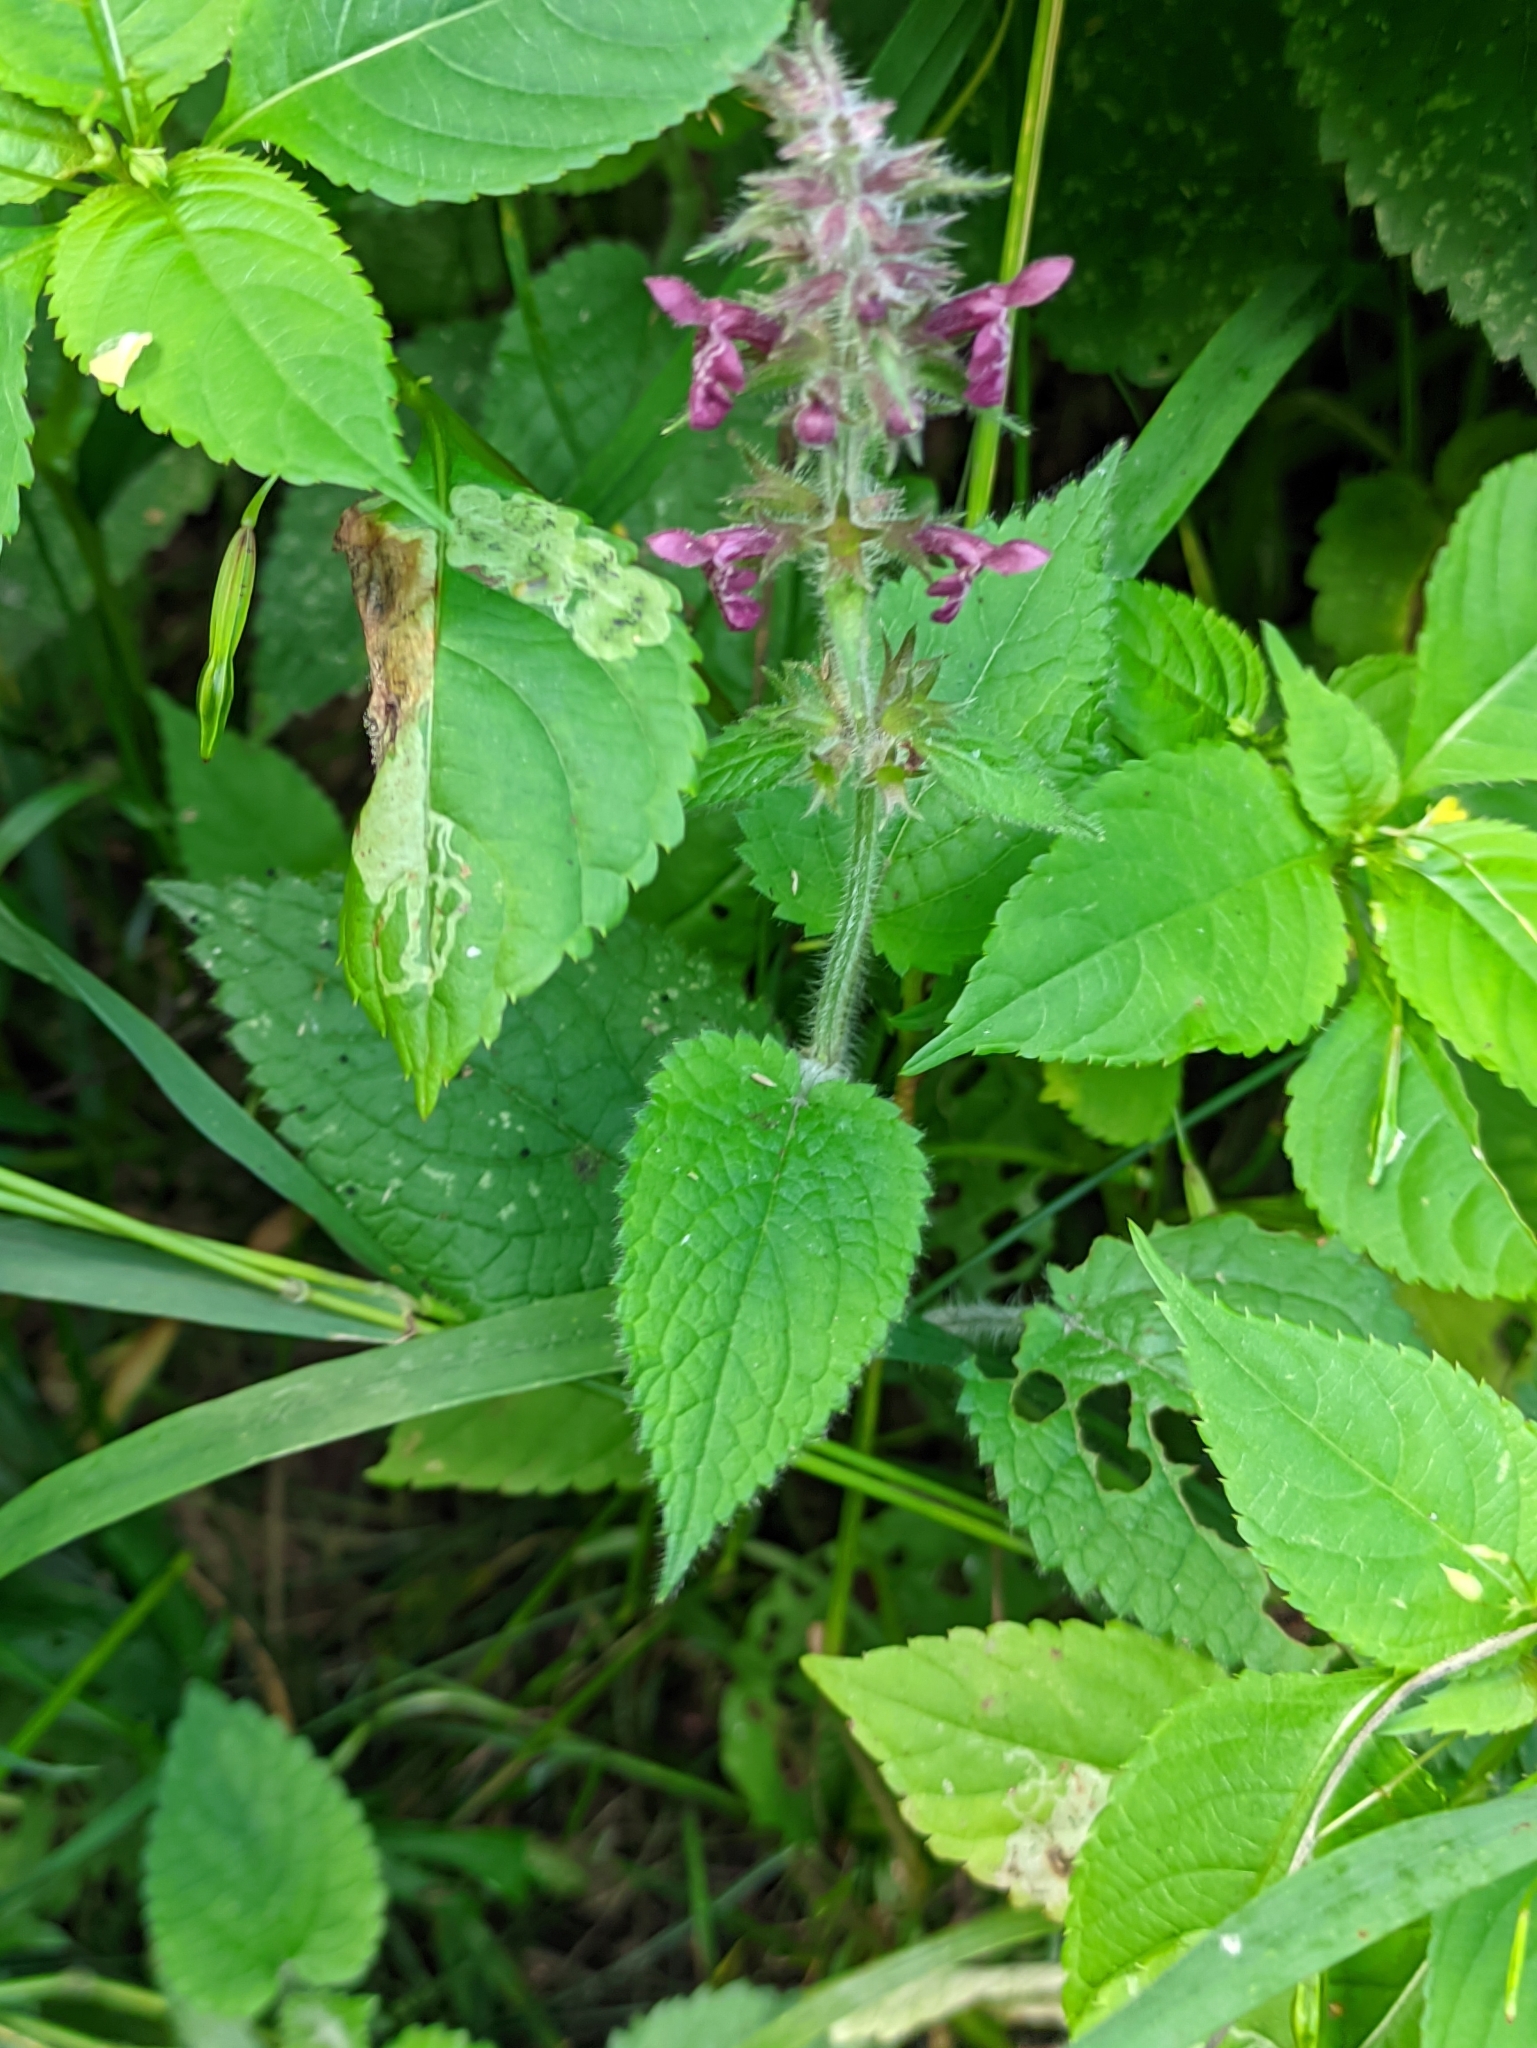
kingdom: Plantae
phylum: Tracheophyta
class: Magnoliopsida
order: Lamiales
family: Lamiaceae
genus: Stachys
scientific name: Stachys sylvatica
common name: Hedge woundwort
